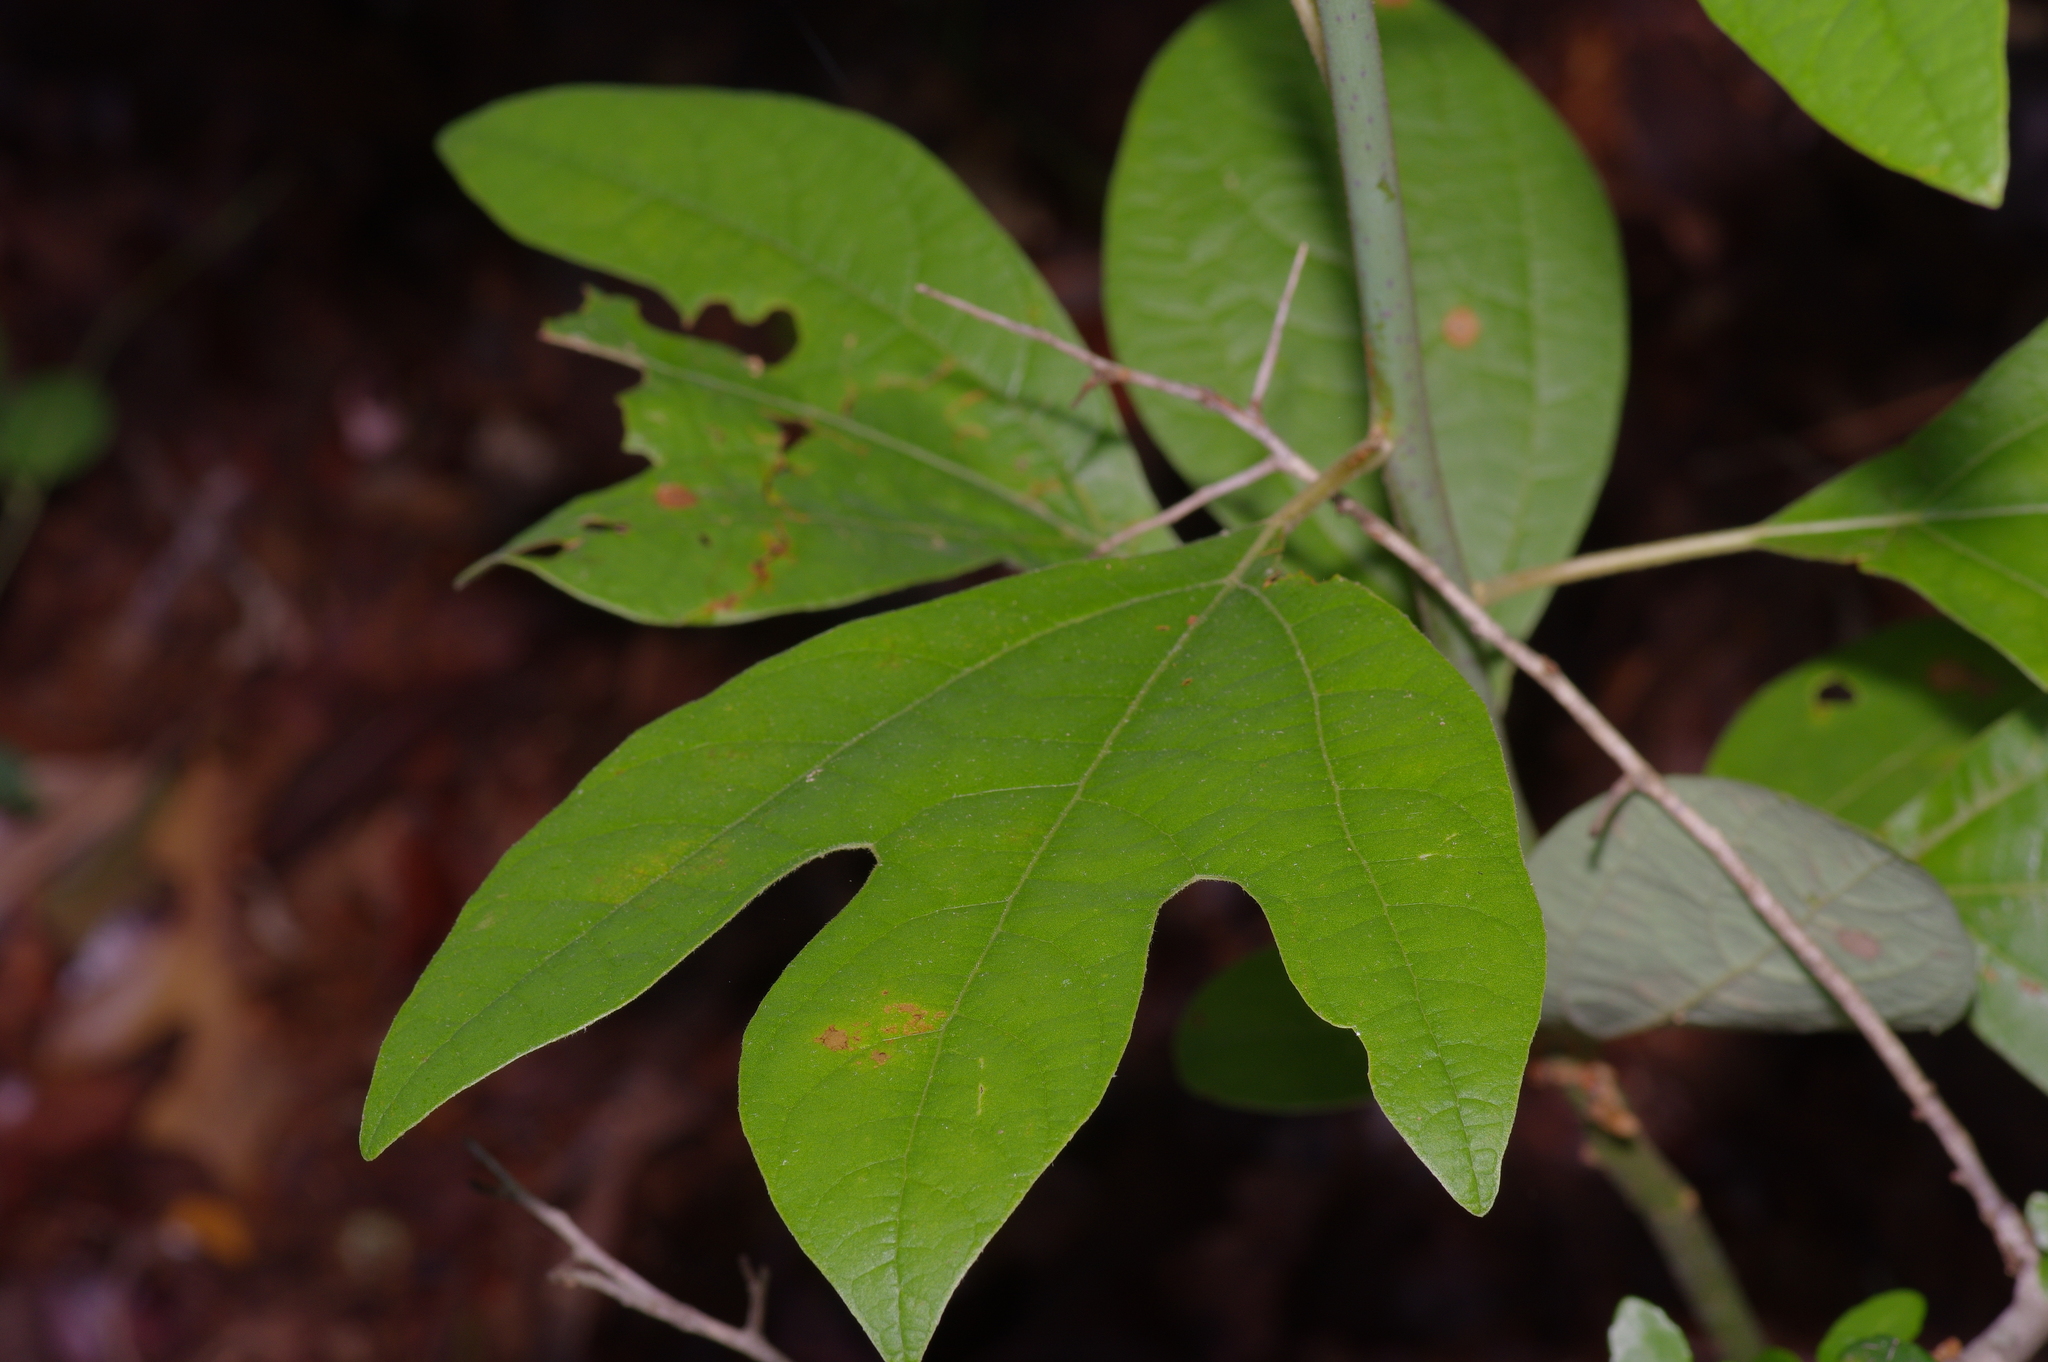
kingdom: Plantae
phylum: Tracheophyta
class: Magnoliopsida
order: Laurales
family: Lauraceae
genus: Sassafras
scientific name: Sassafras albidum
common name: Sassafras
